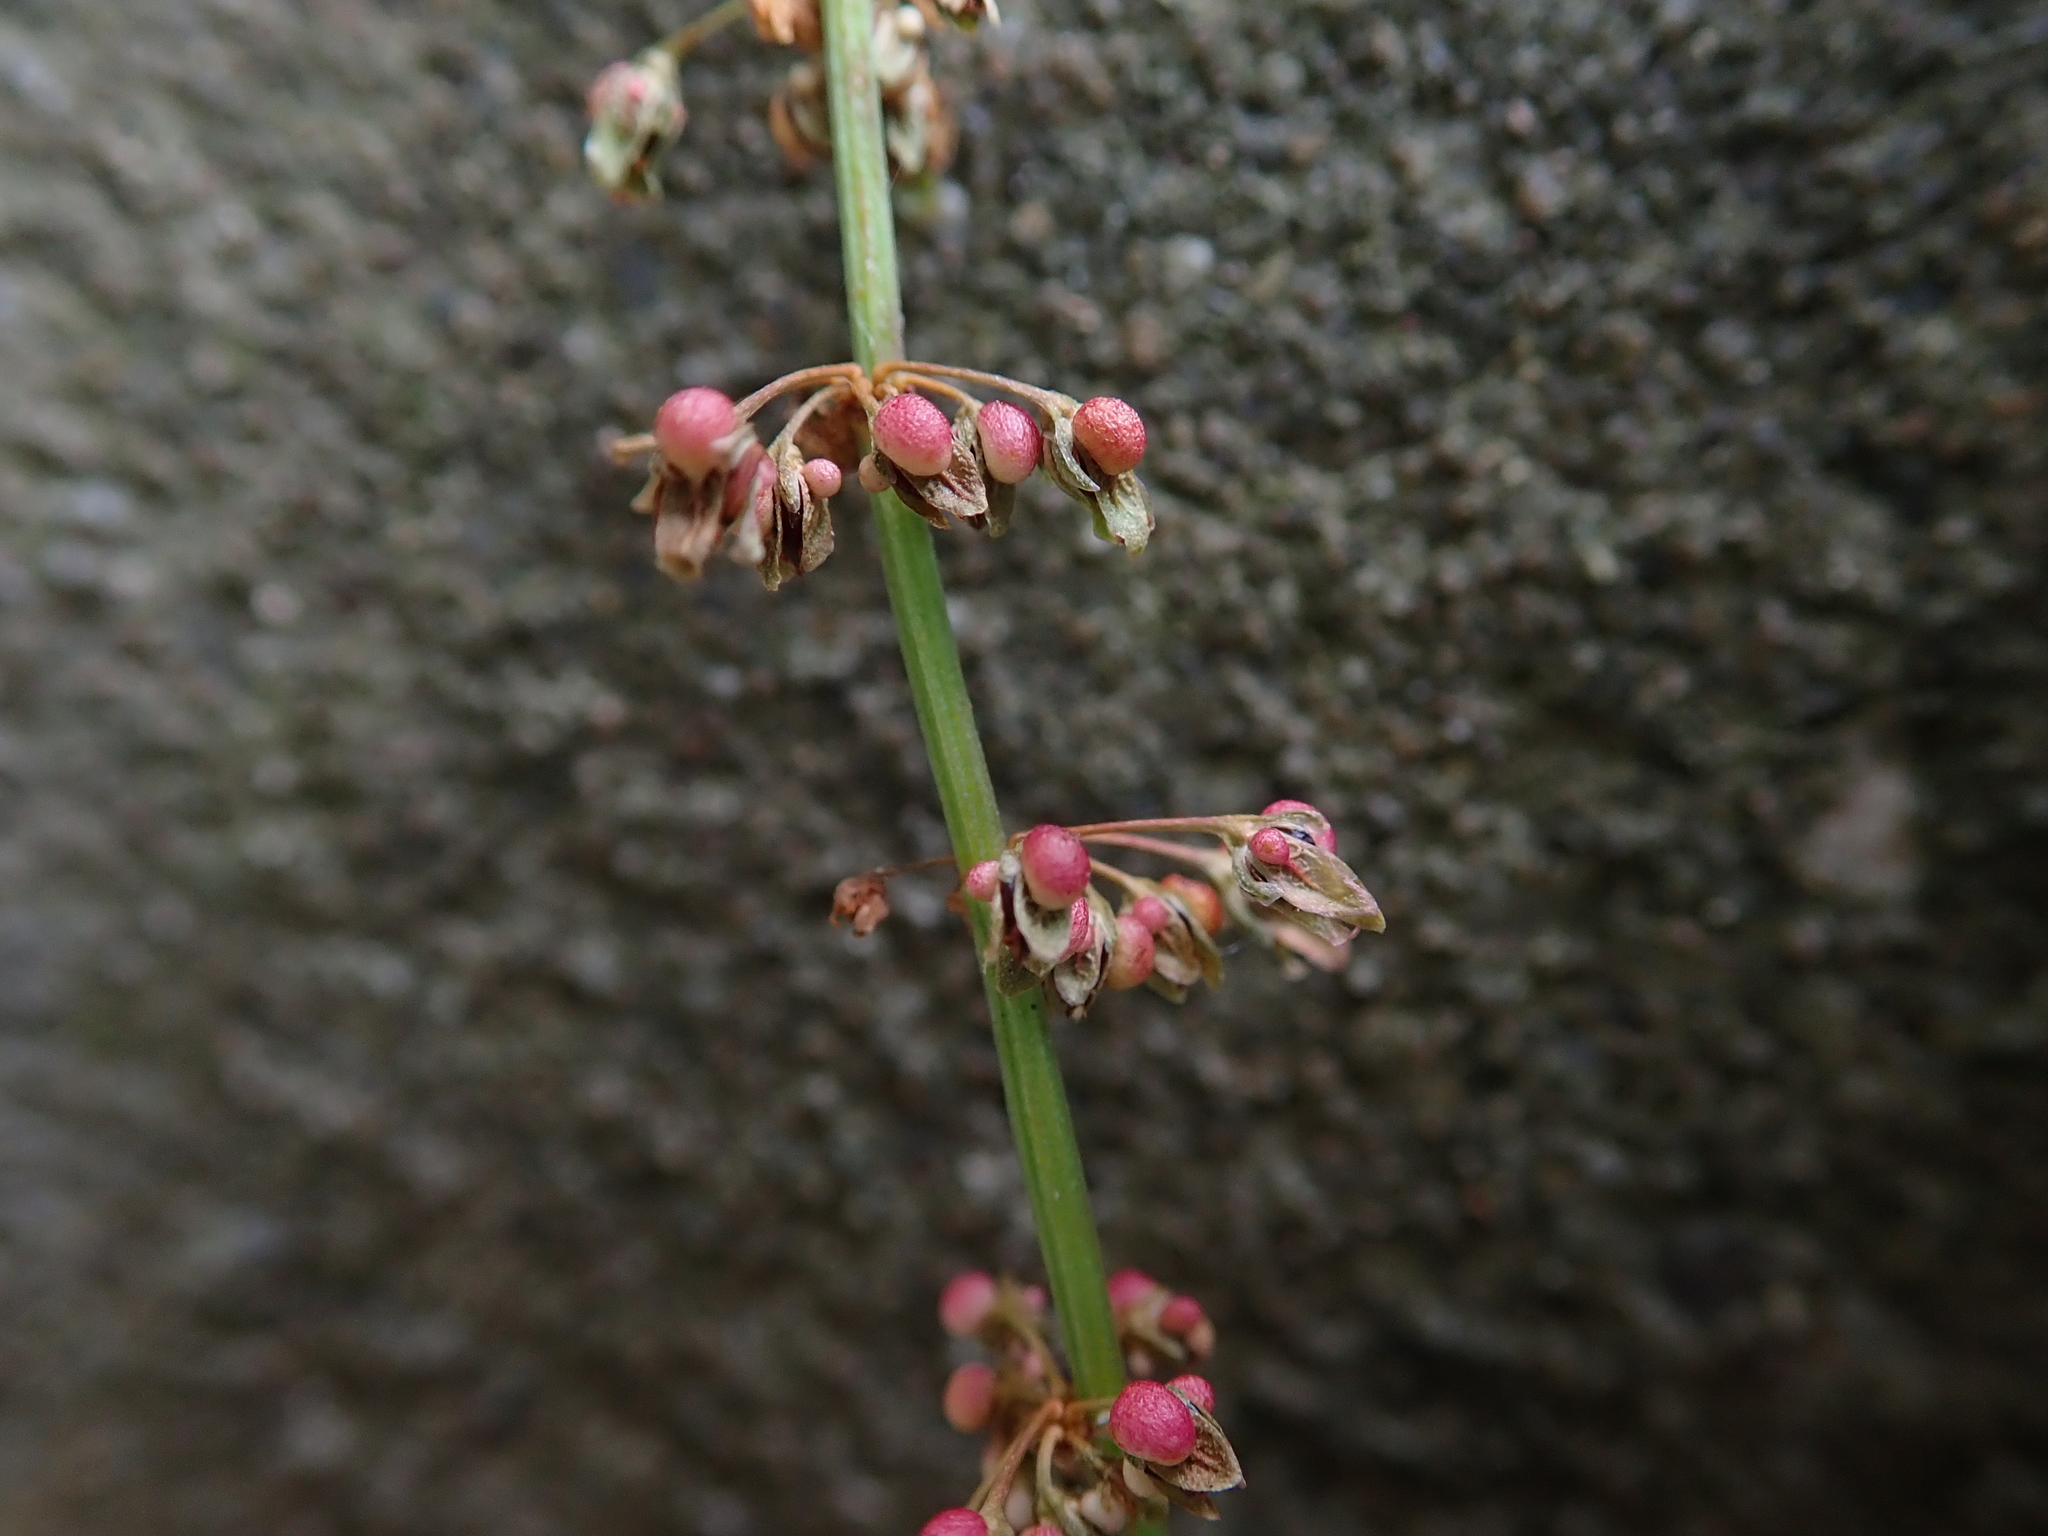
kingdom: Plantae
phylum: Tracheophyta
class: Magnoliopsida
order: Caryophyllales
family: Polygonaceae
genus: Rumex
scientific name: Rumex sanguineus
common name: Wood dock
